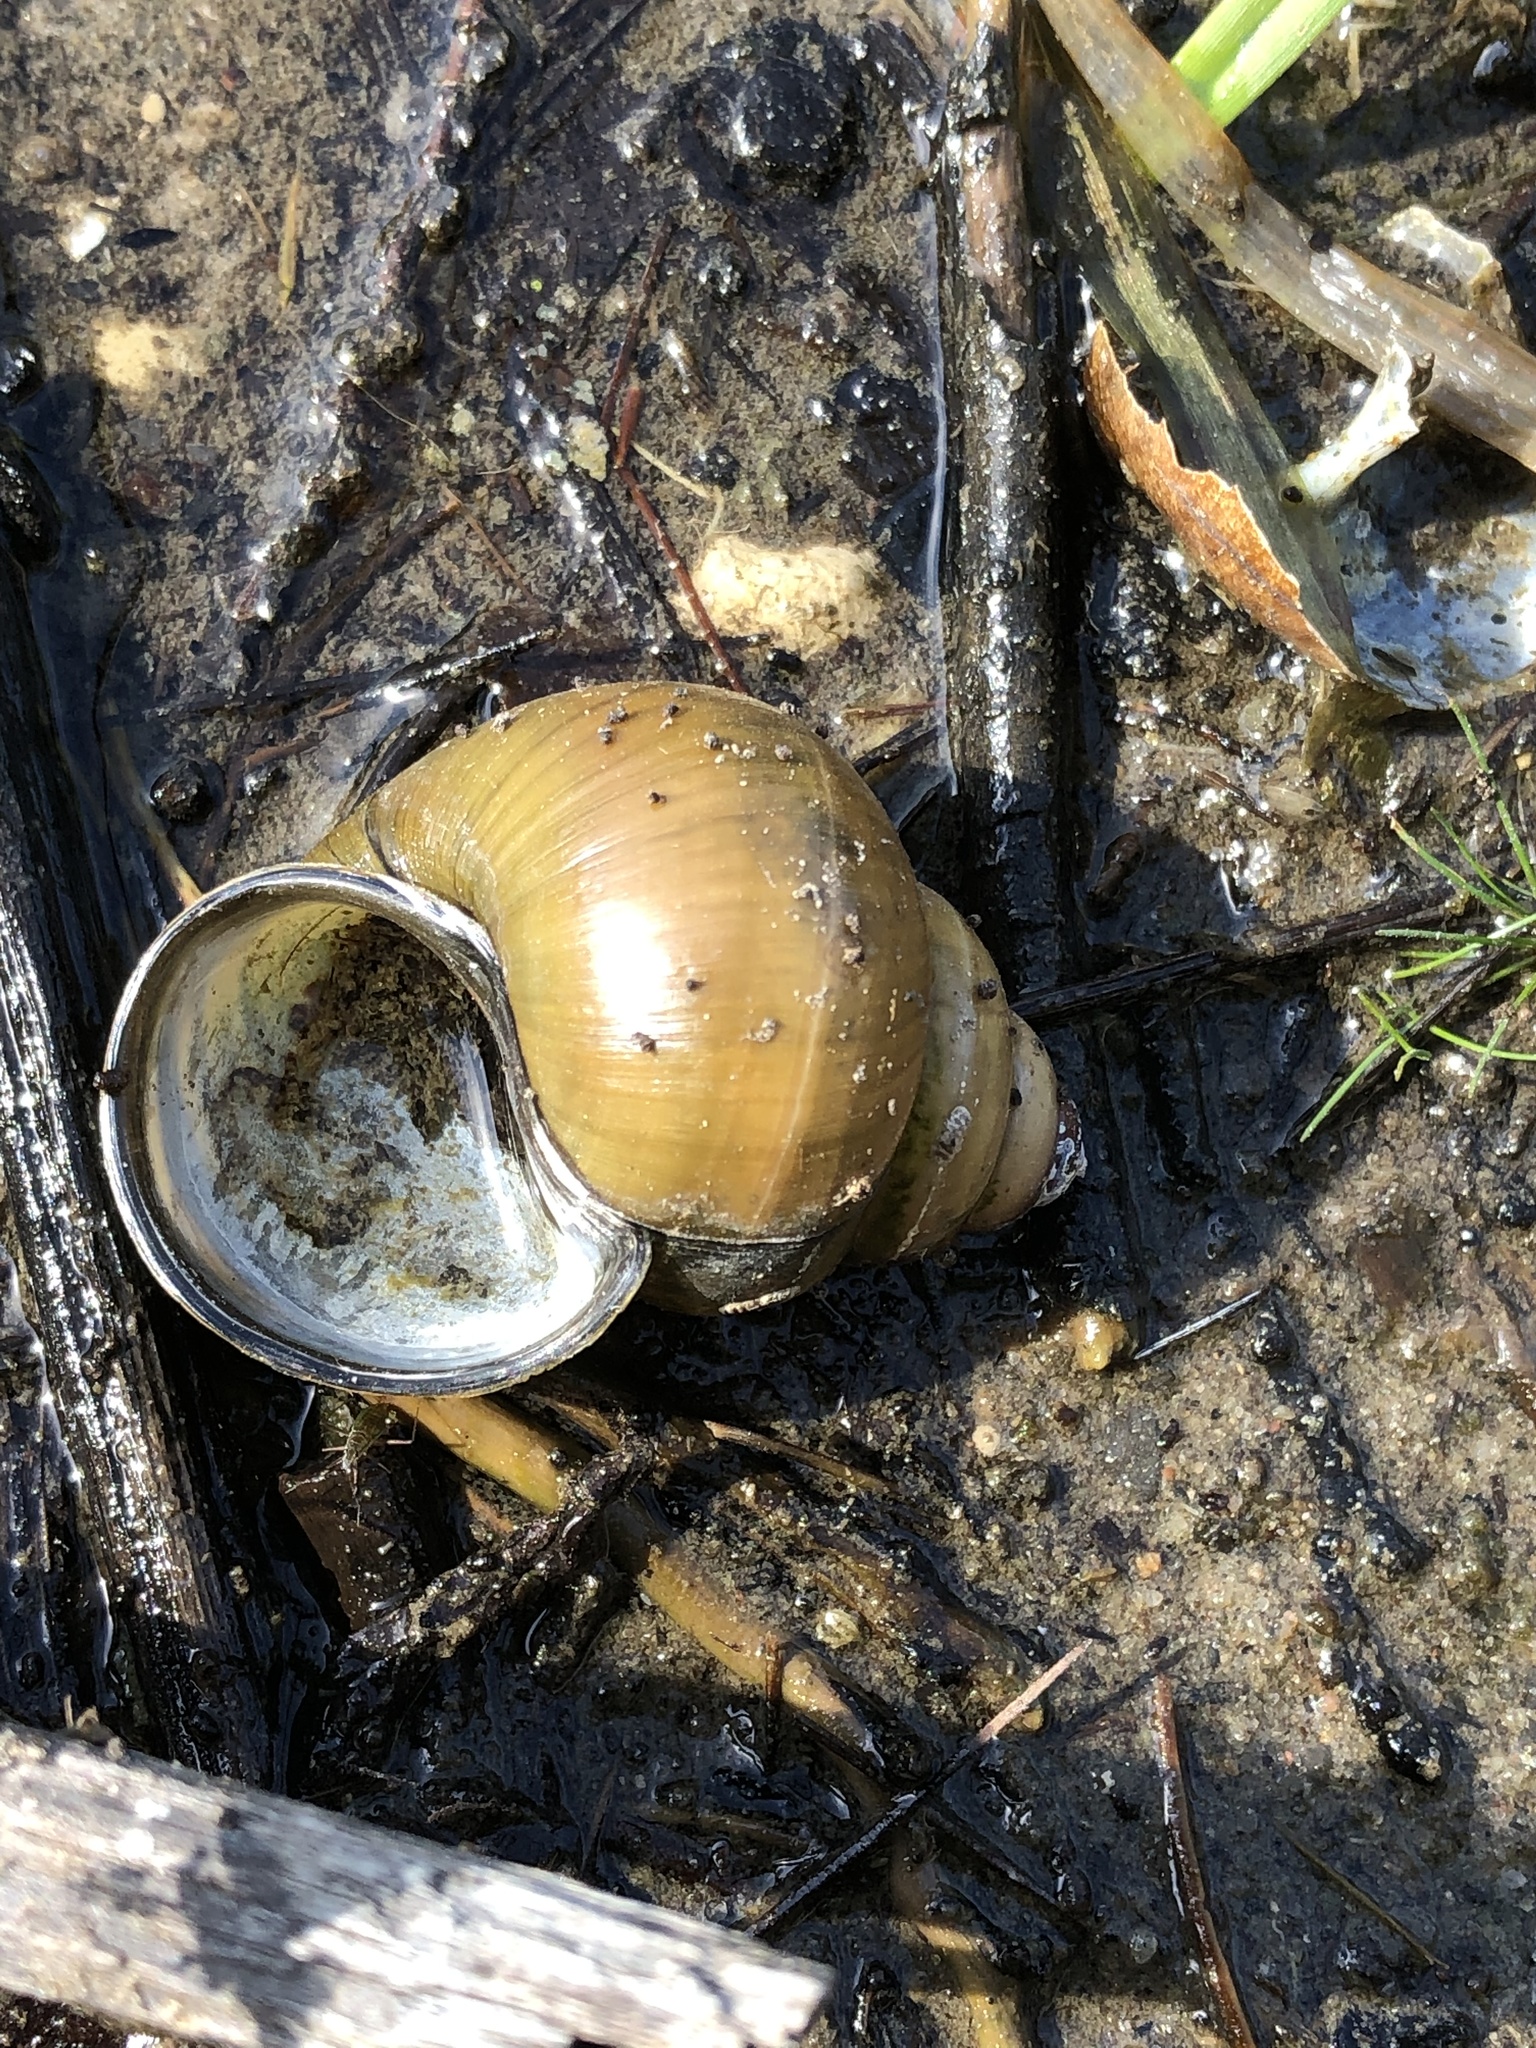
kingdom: Animalia
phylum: Mollusca
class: Gastropoda
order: Architaenioglossa
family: Viviparidae
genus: Cipangopaludina
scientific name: Cipangopaludina chinensis
